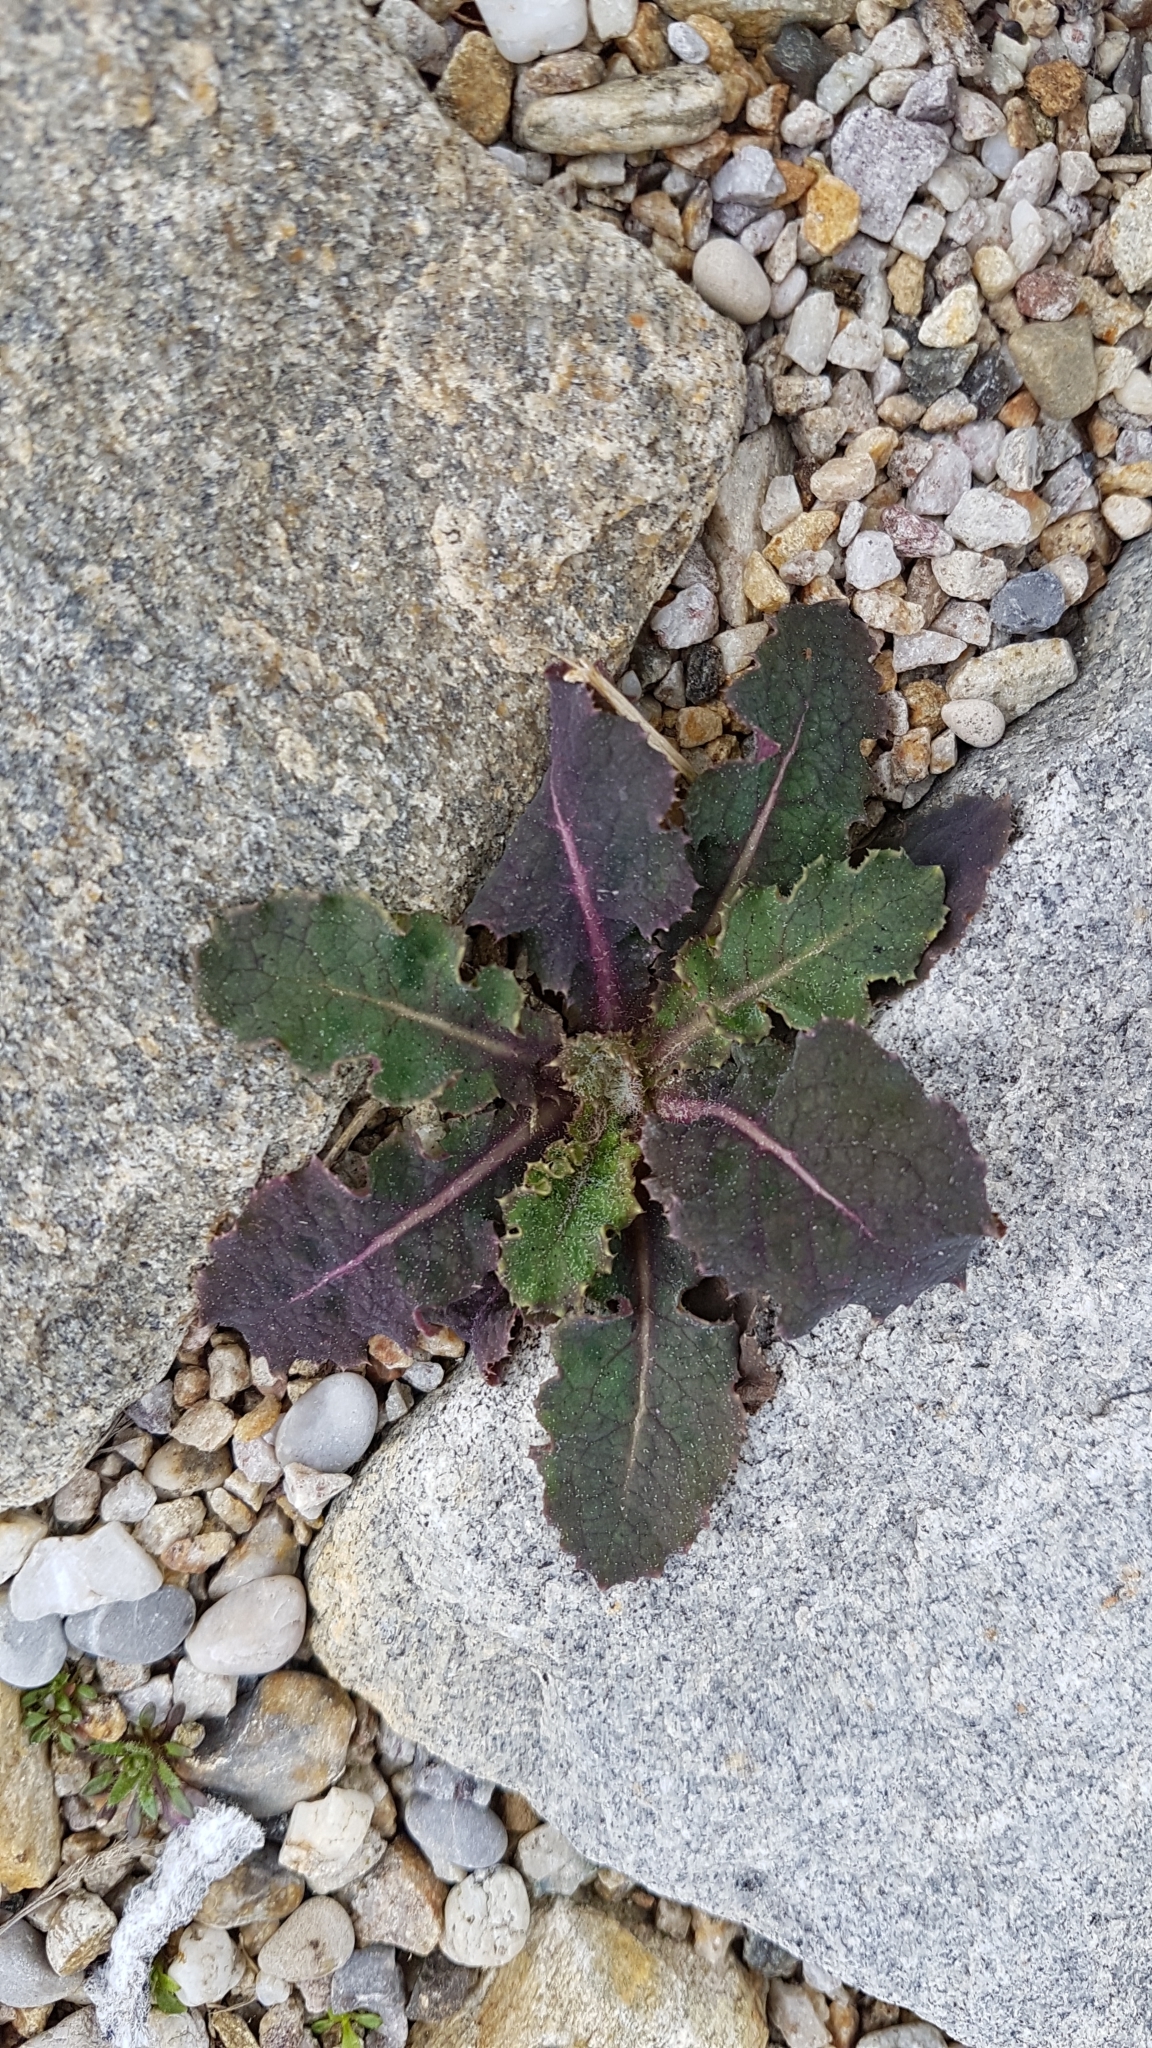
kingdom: Plantae
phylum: Tracheophyta
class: Magnoliopsida
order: Asterales
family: Asteraceae
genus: Sonchus
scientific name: Sonchus oleraceus
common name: Common sowthistle
